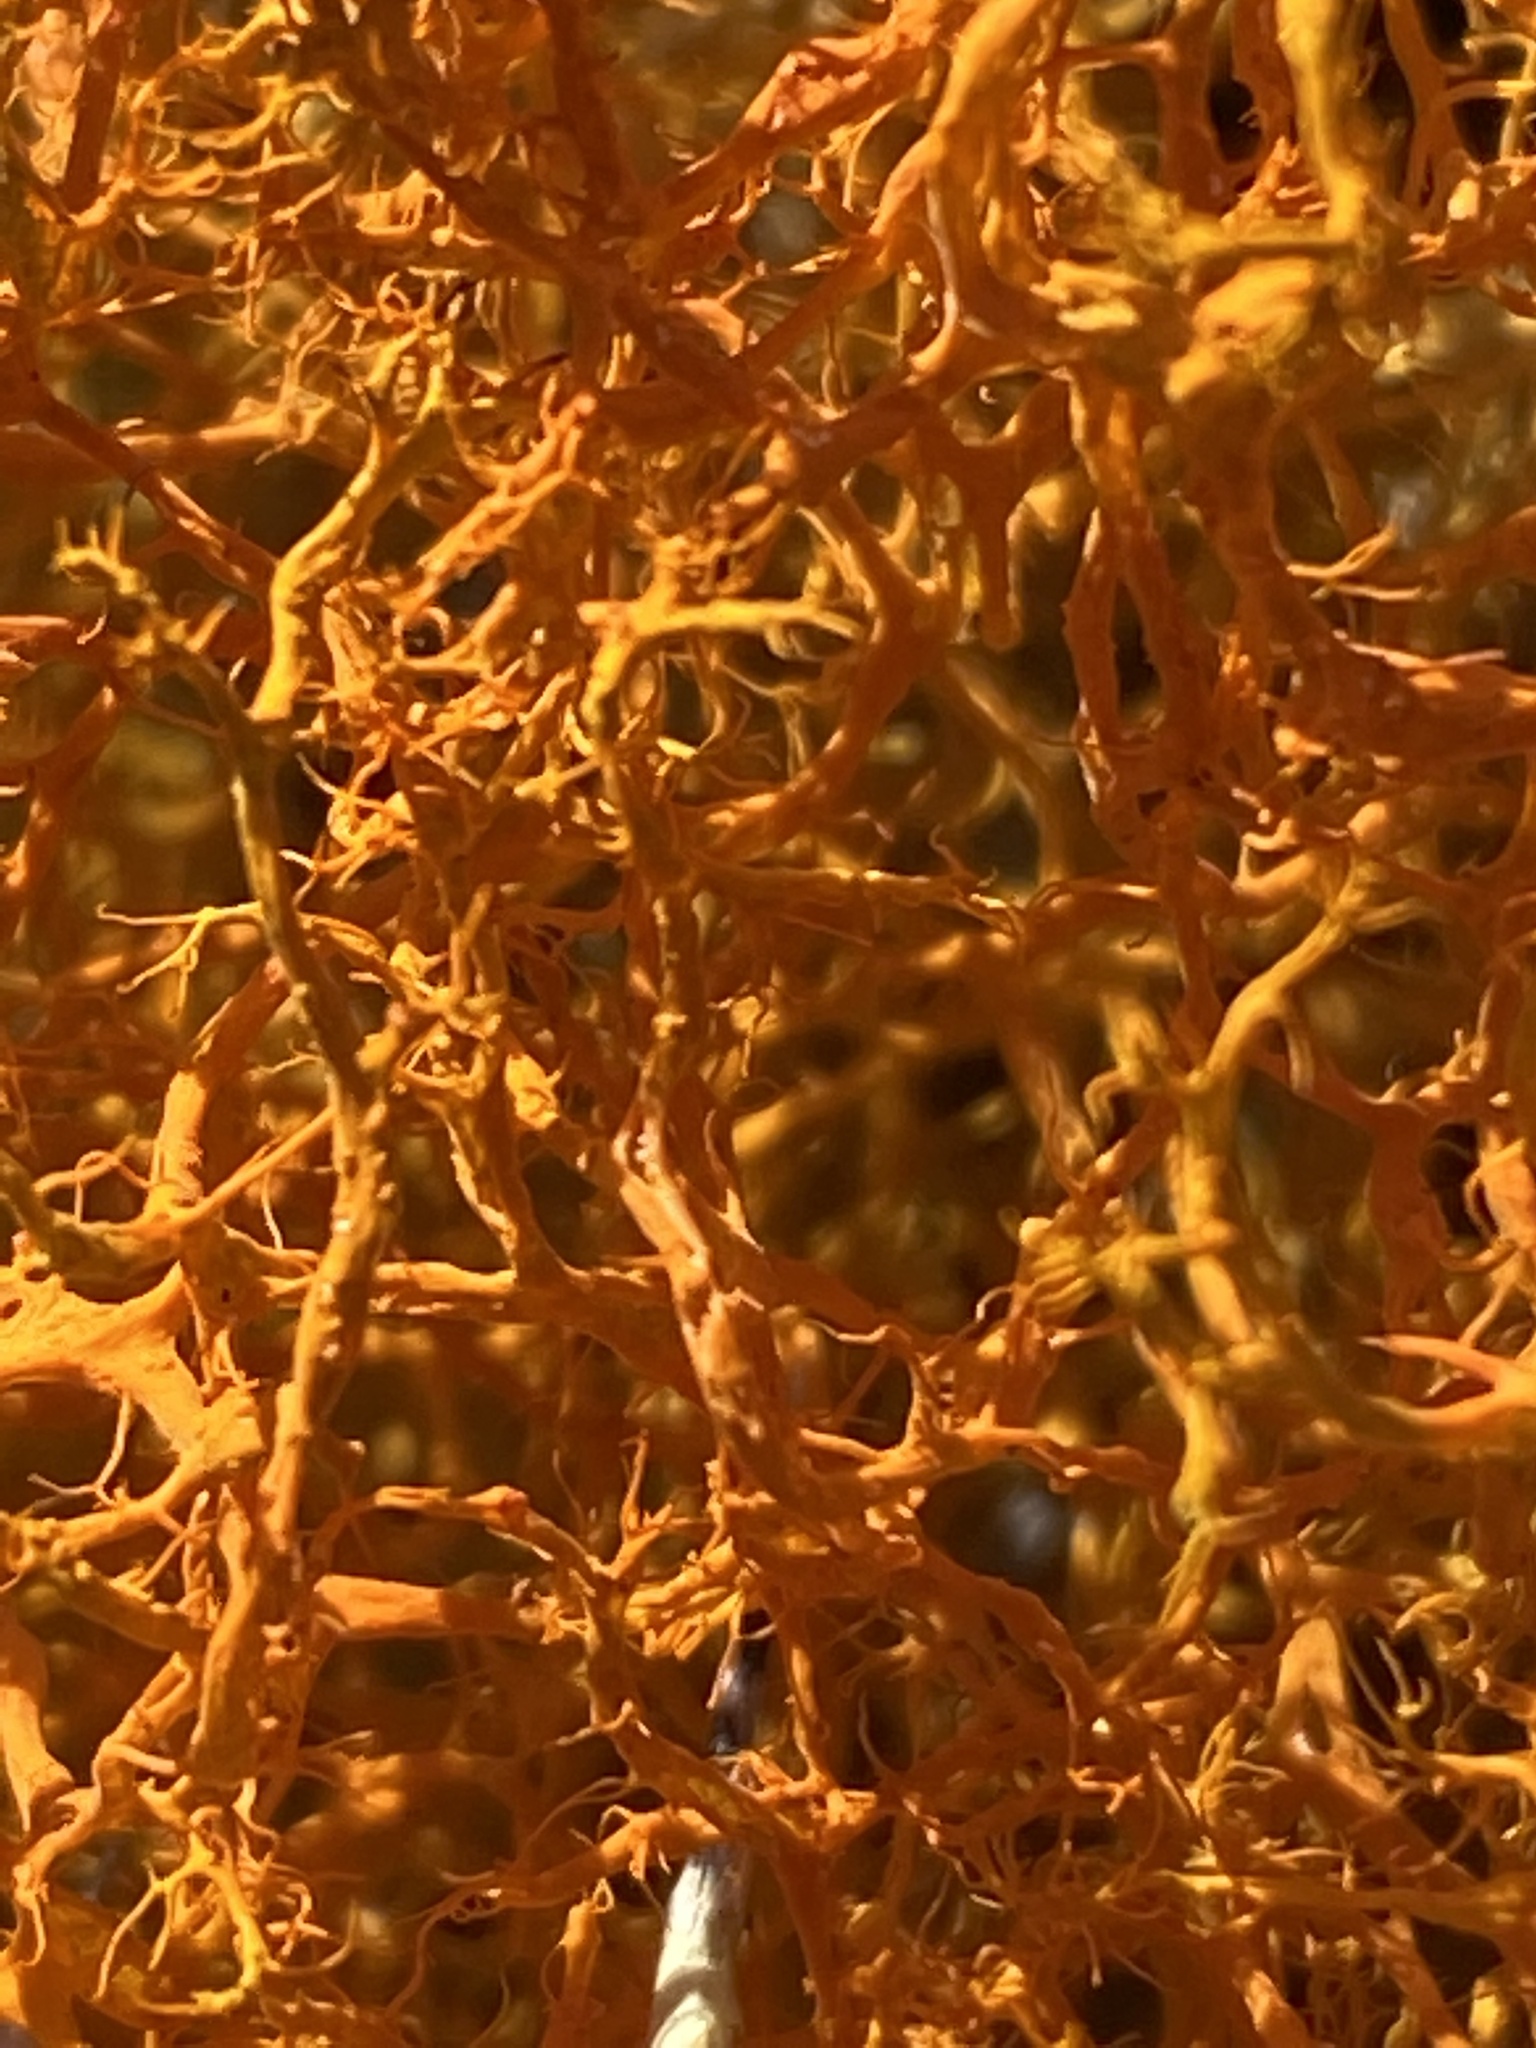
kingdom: Fungi
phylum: Ascomycota
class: Lecanoromycetes
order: Teloschistales
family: Teloschistaceae
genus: Teloschistes
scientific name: Teloschistes capensis
